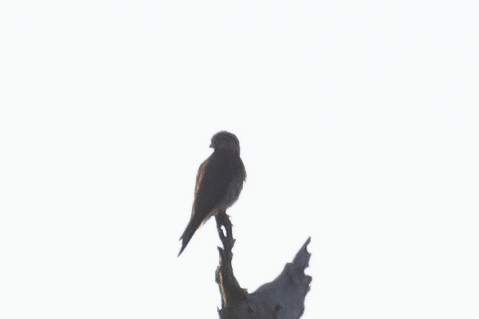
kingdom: Animalia
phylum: Chordata
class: Aves
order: Falconiformes
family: Falconidae
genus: Falco
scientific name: Falco sparverius
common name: American kestrel
